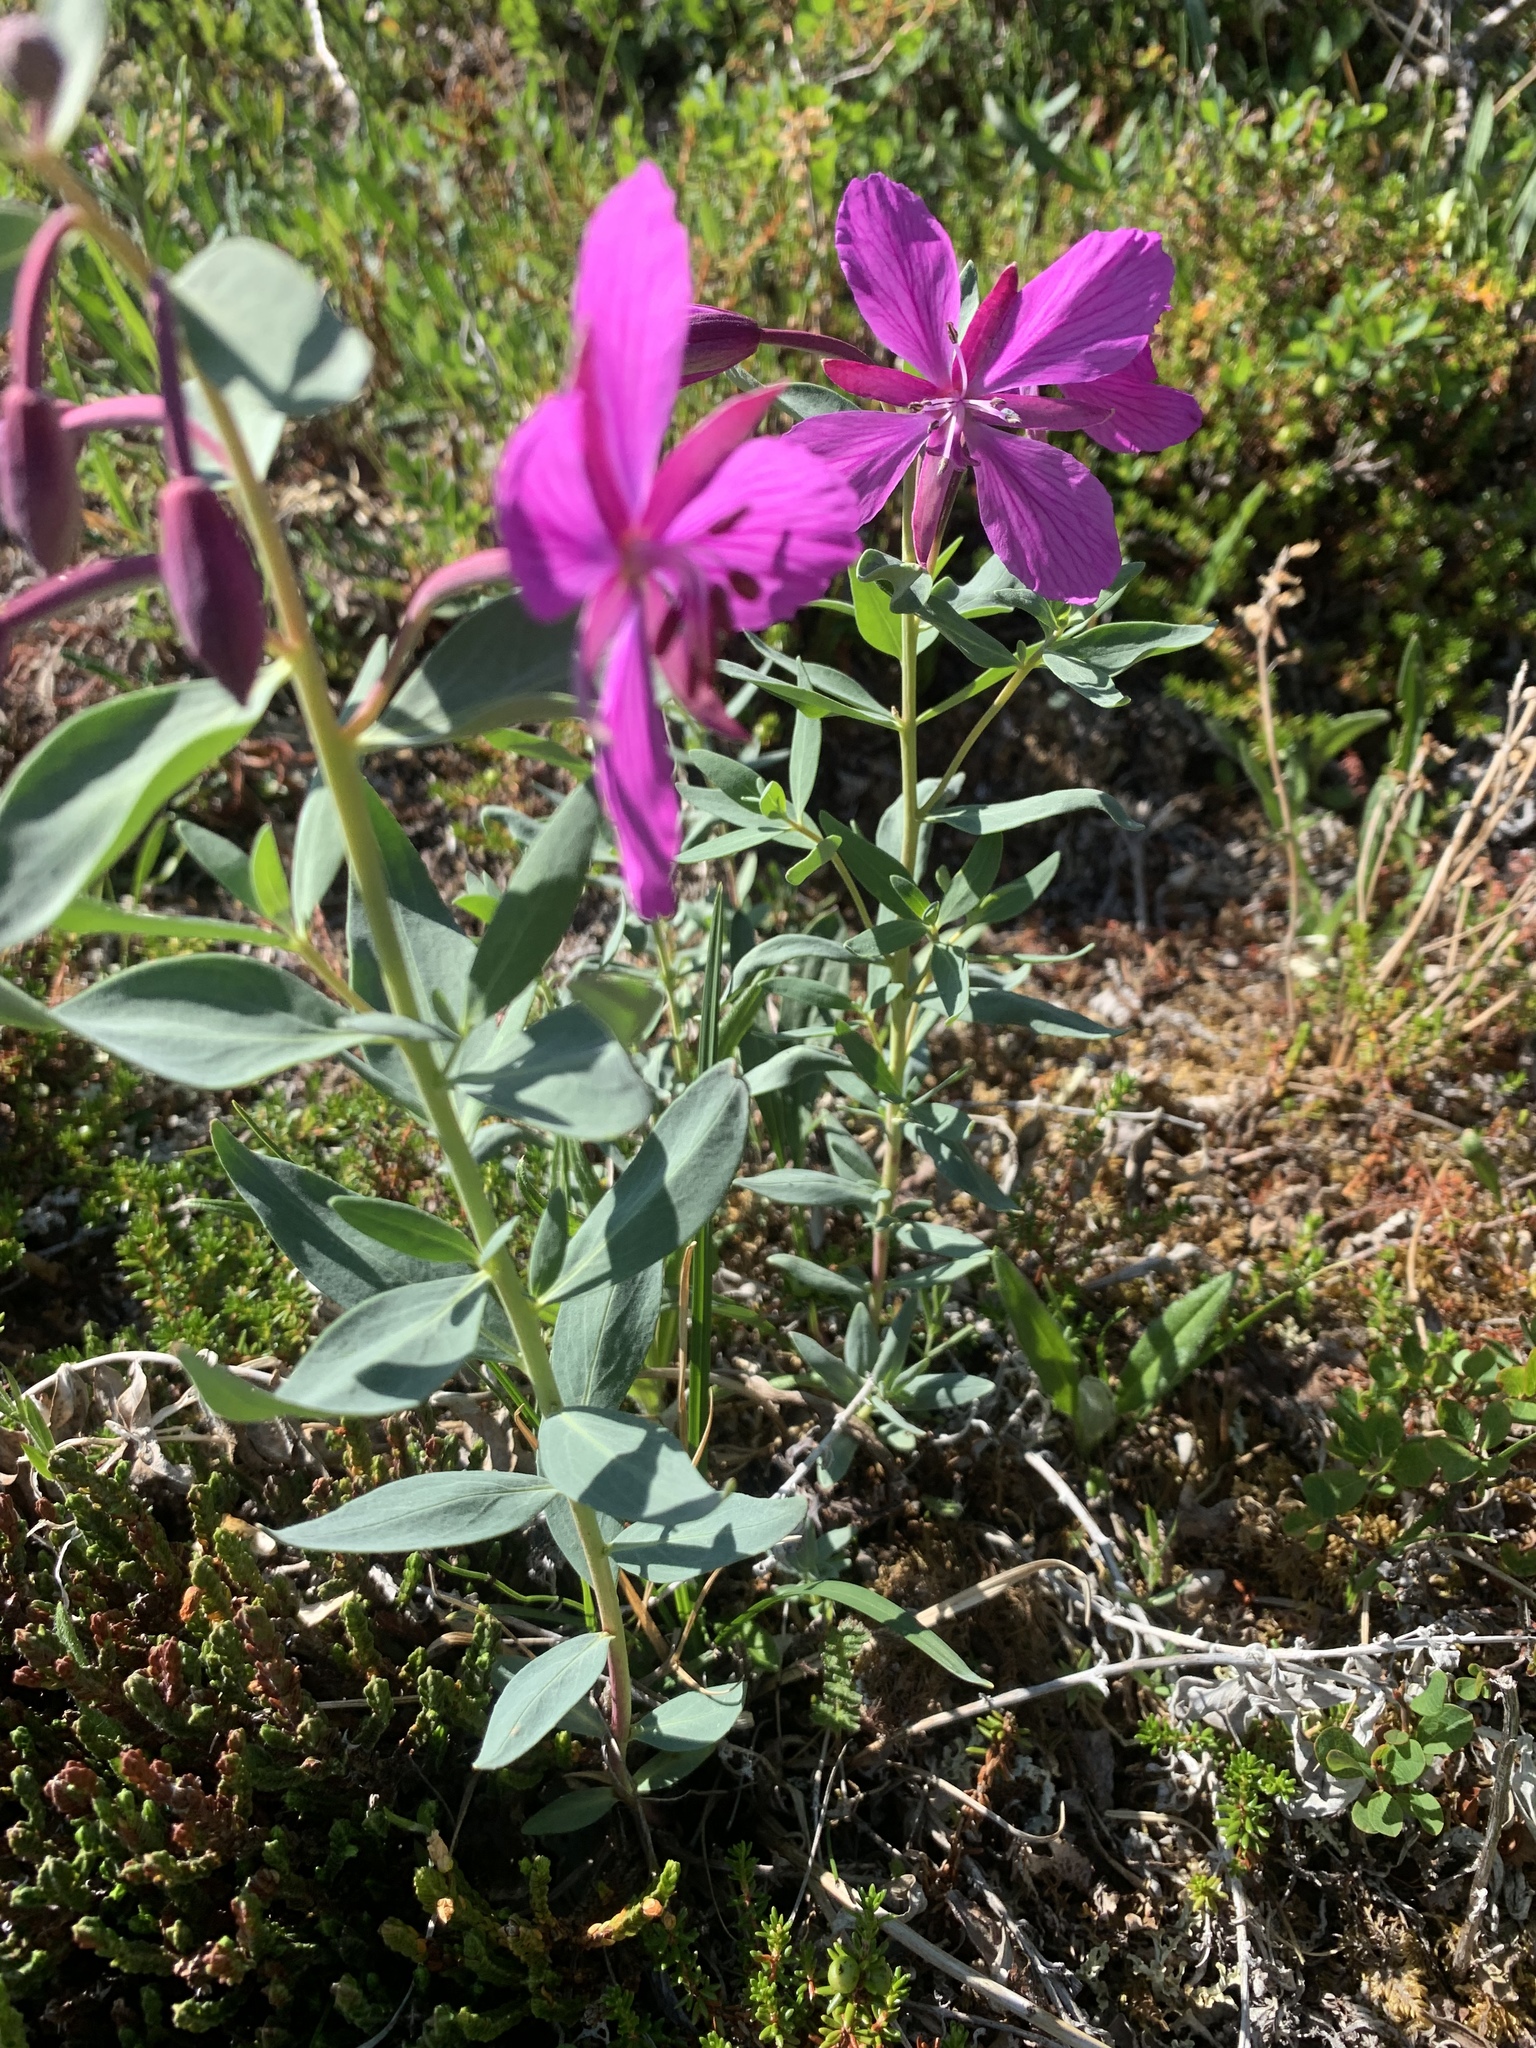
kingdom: Plantae
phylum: Tracheophyta
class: Magnoliopsida
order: Myrtales
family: Onagraceae
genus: Chamaenerion
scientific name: Chamaenerion latifolium
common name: Dwarf fireweed
